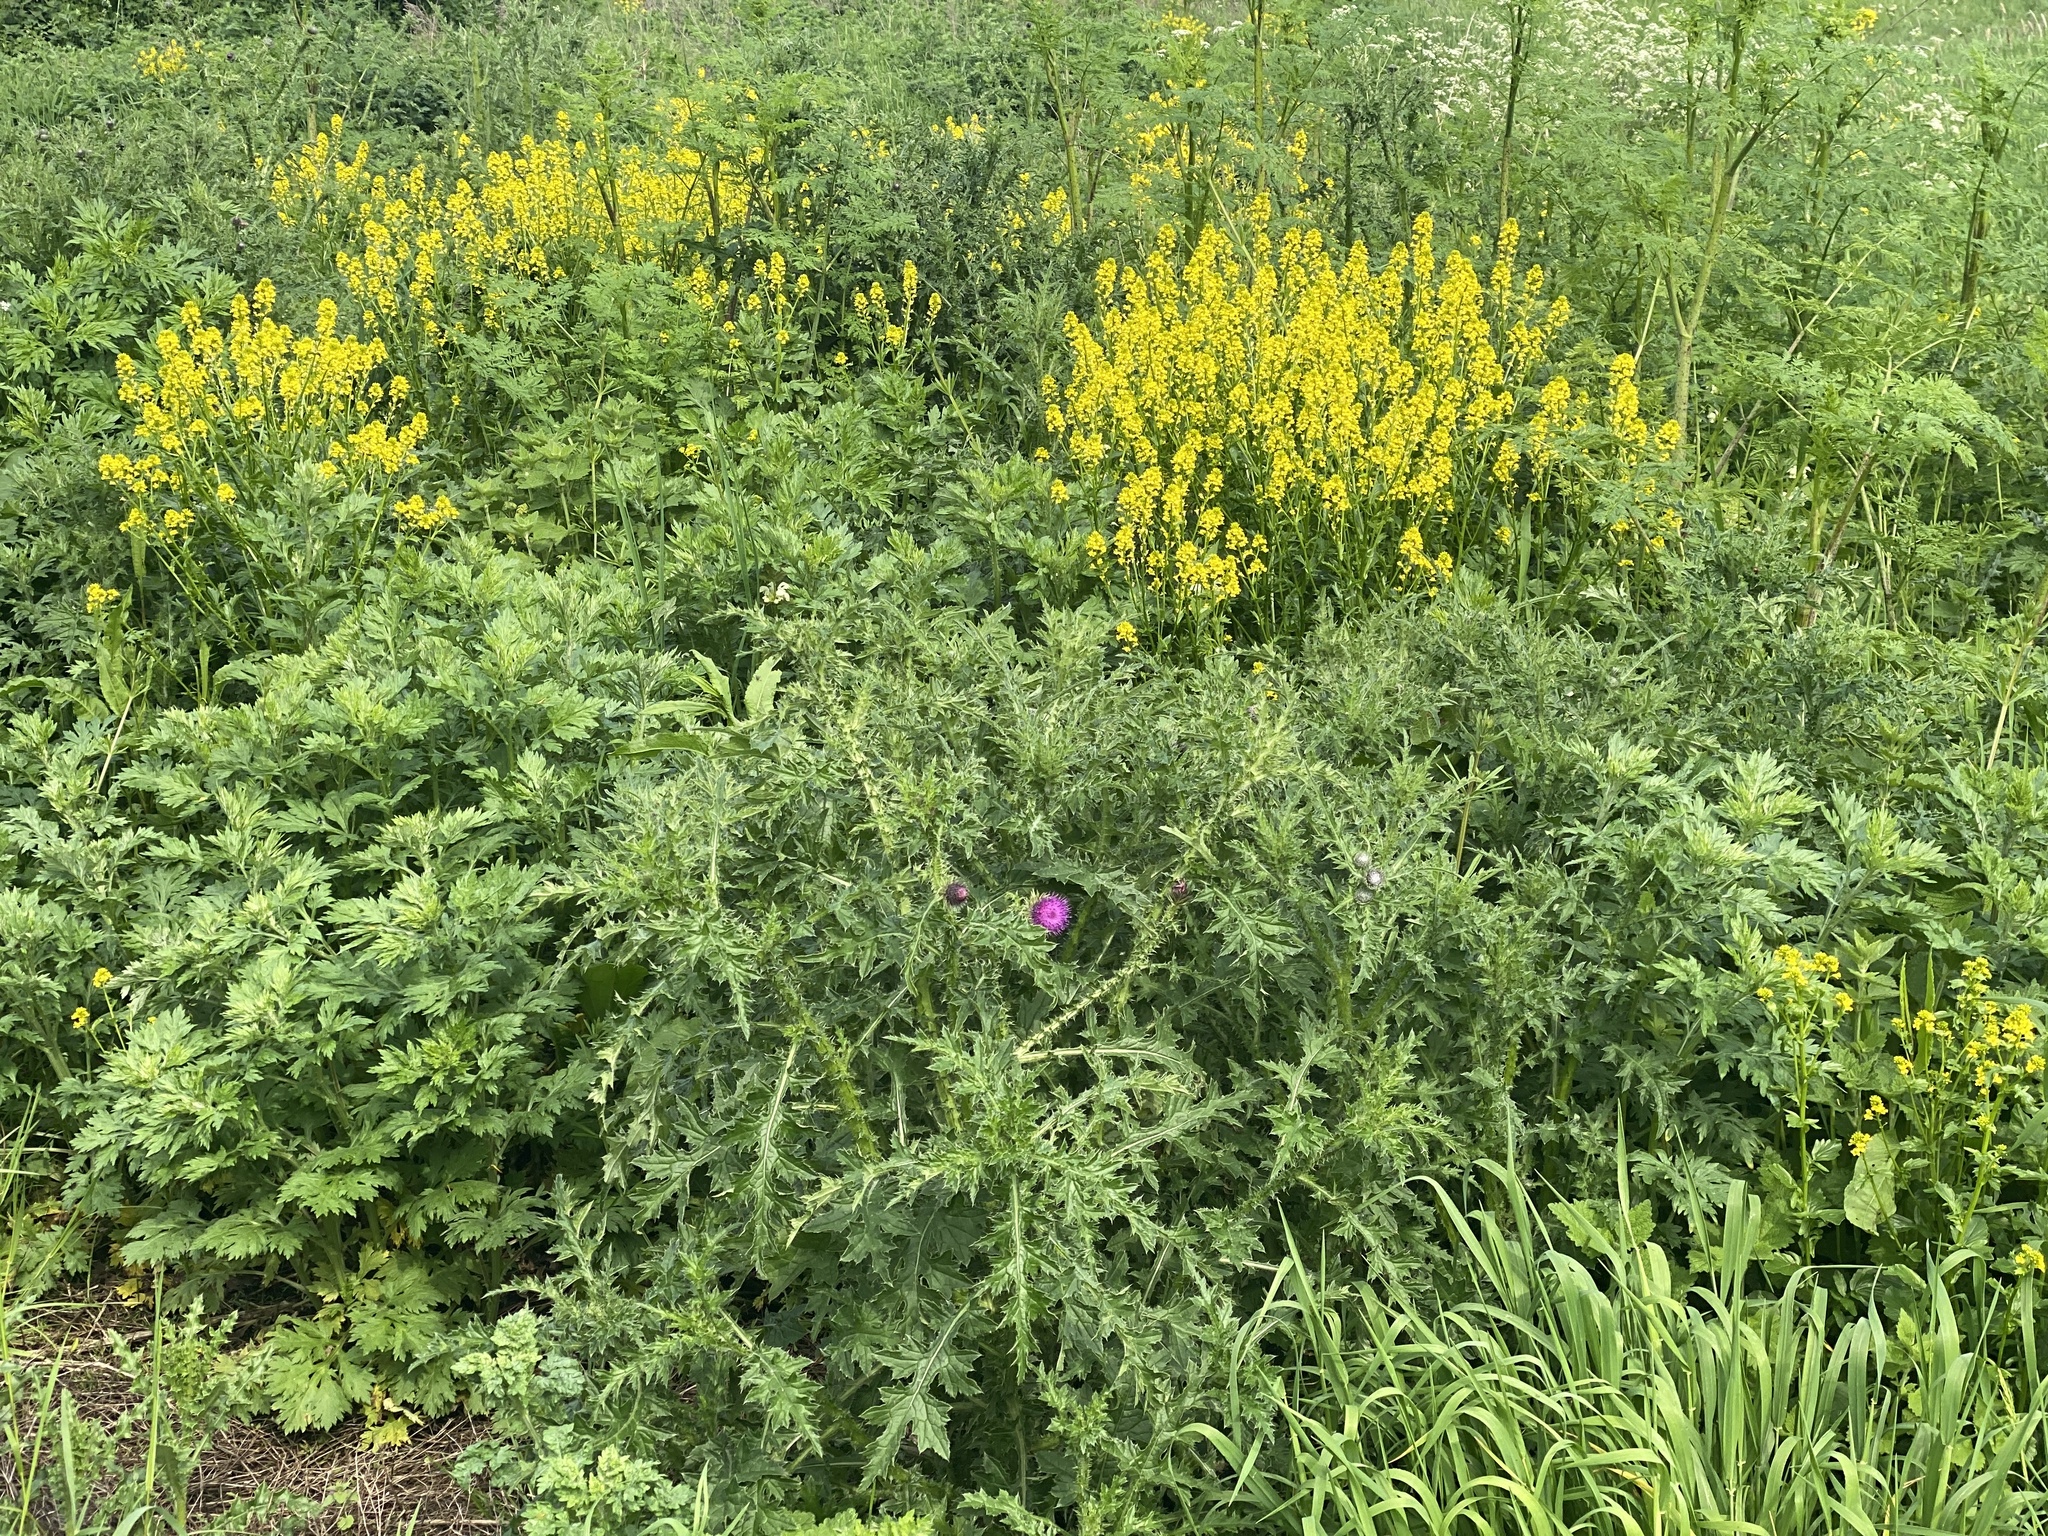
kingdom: Plantae
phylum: Tracheophyta
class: Magnoliopsida
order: Asterales
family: Asteraceae
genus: Carduus
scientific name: Carduus crispus
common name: Welted thistle
